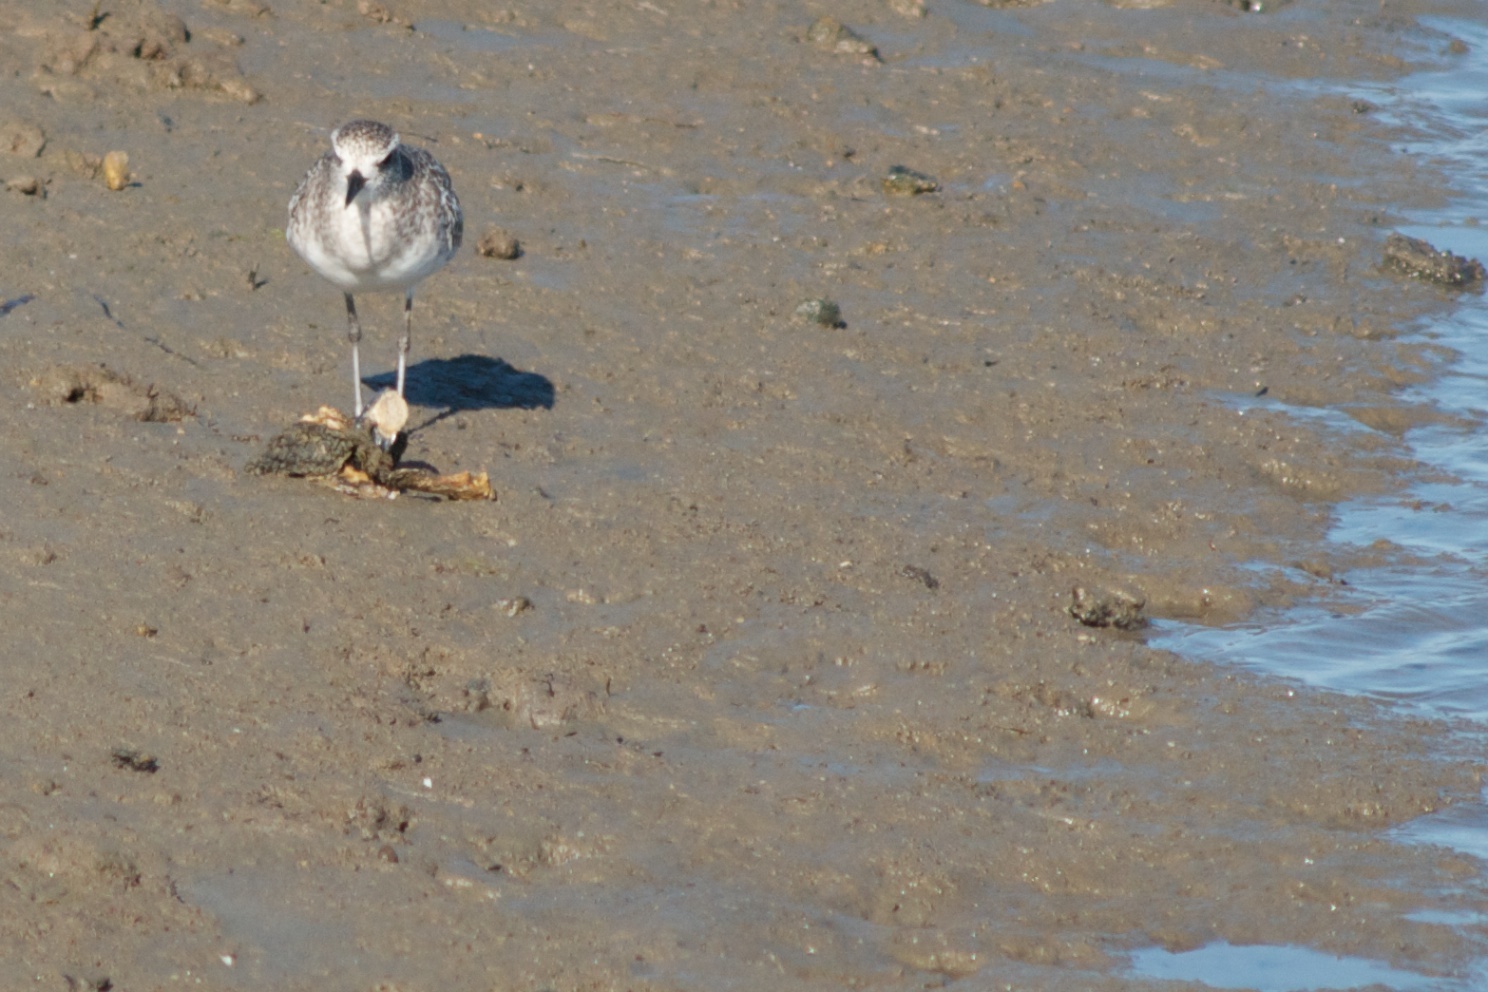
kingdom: Animalia
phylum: Chordata
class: Aves
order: Charadriiformes
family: Charadriidae
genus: Pluvialis
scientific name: Pluvialis squatarola
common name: Grey plover
